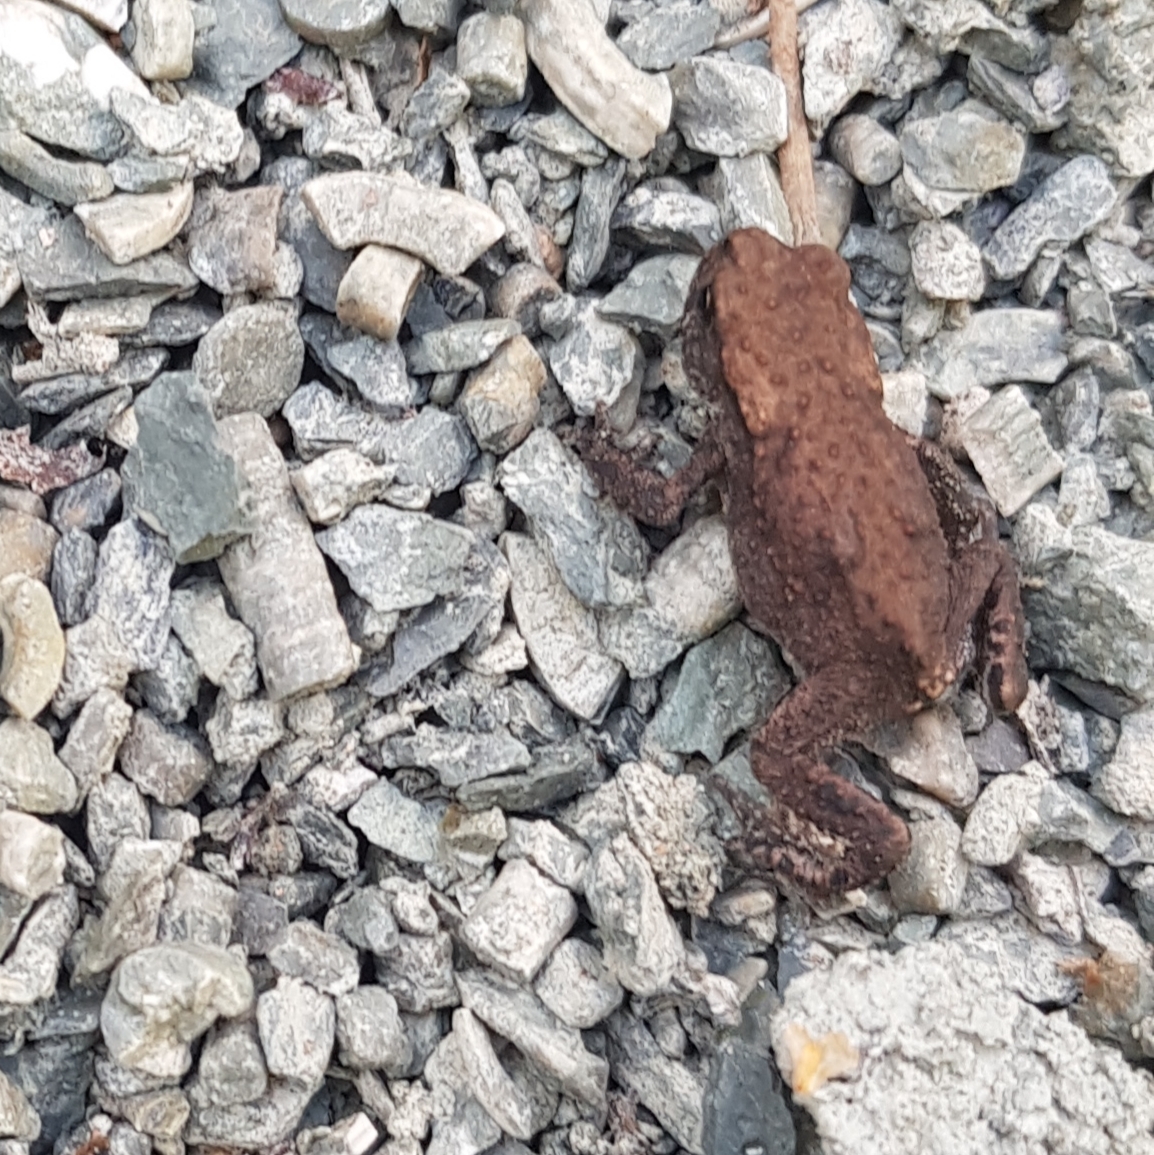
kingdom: Animalia
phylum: Chordata
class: Amphibia
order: Anura
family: Bufonidae
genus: Bufo
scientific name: Bufo bufo
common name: Common toad
